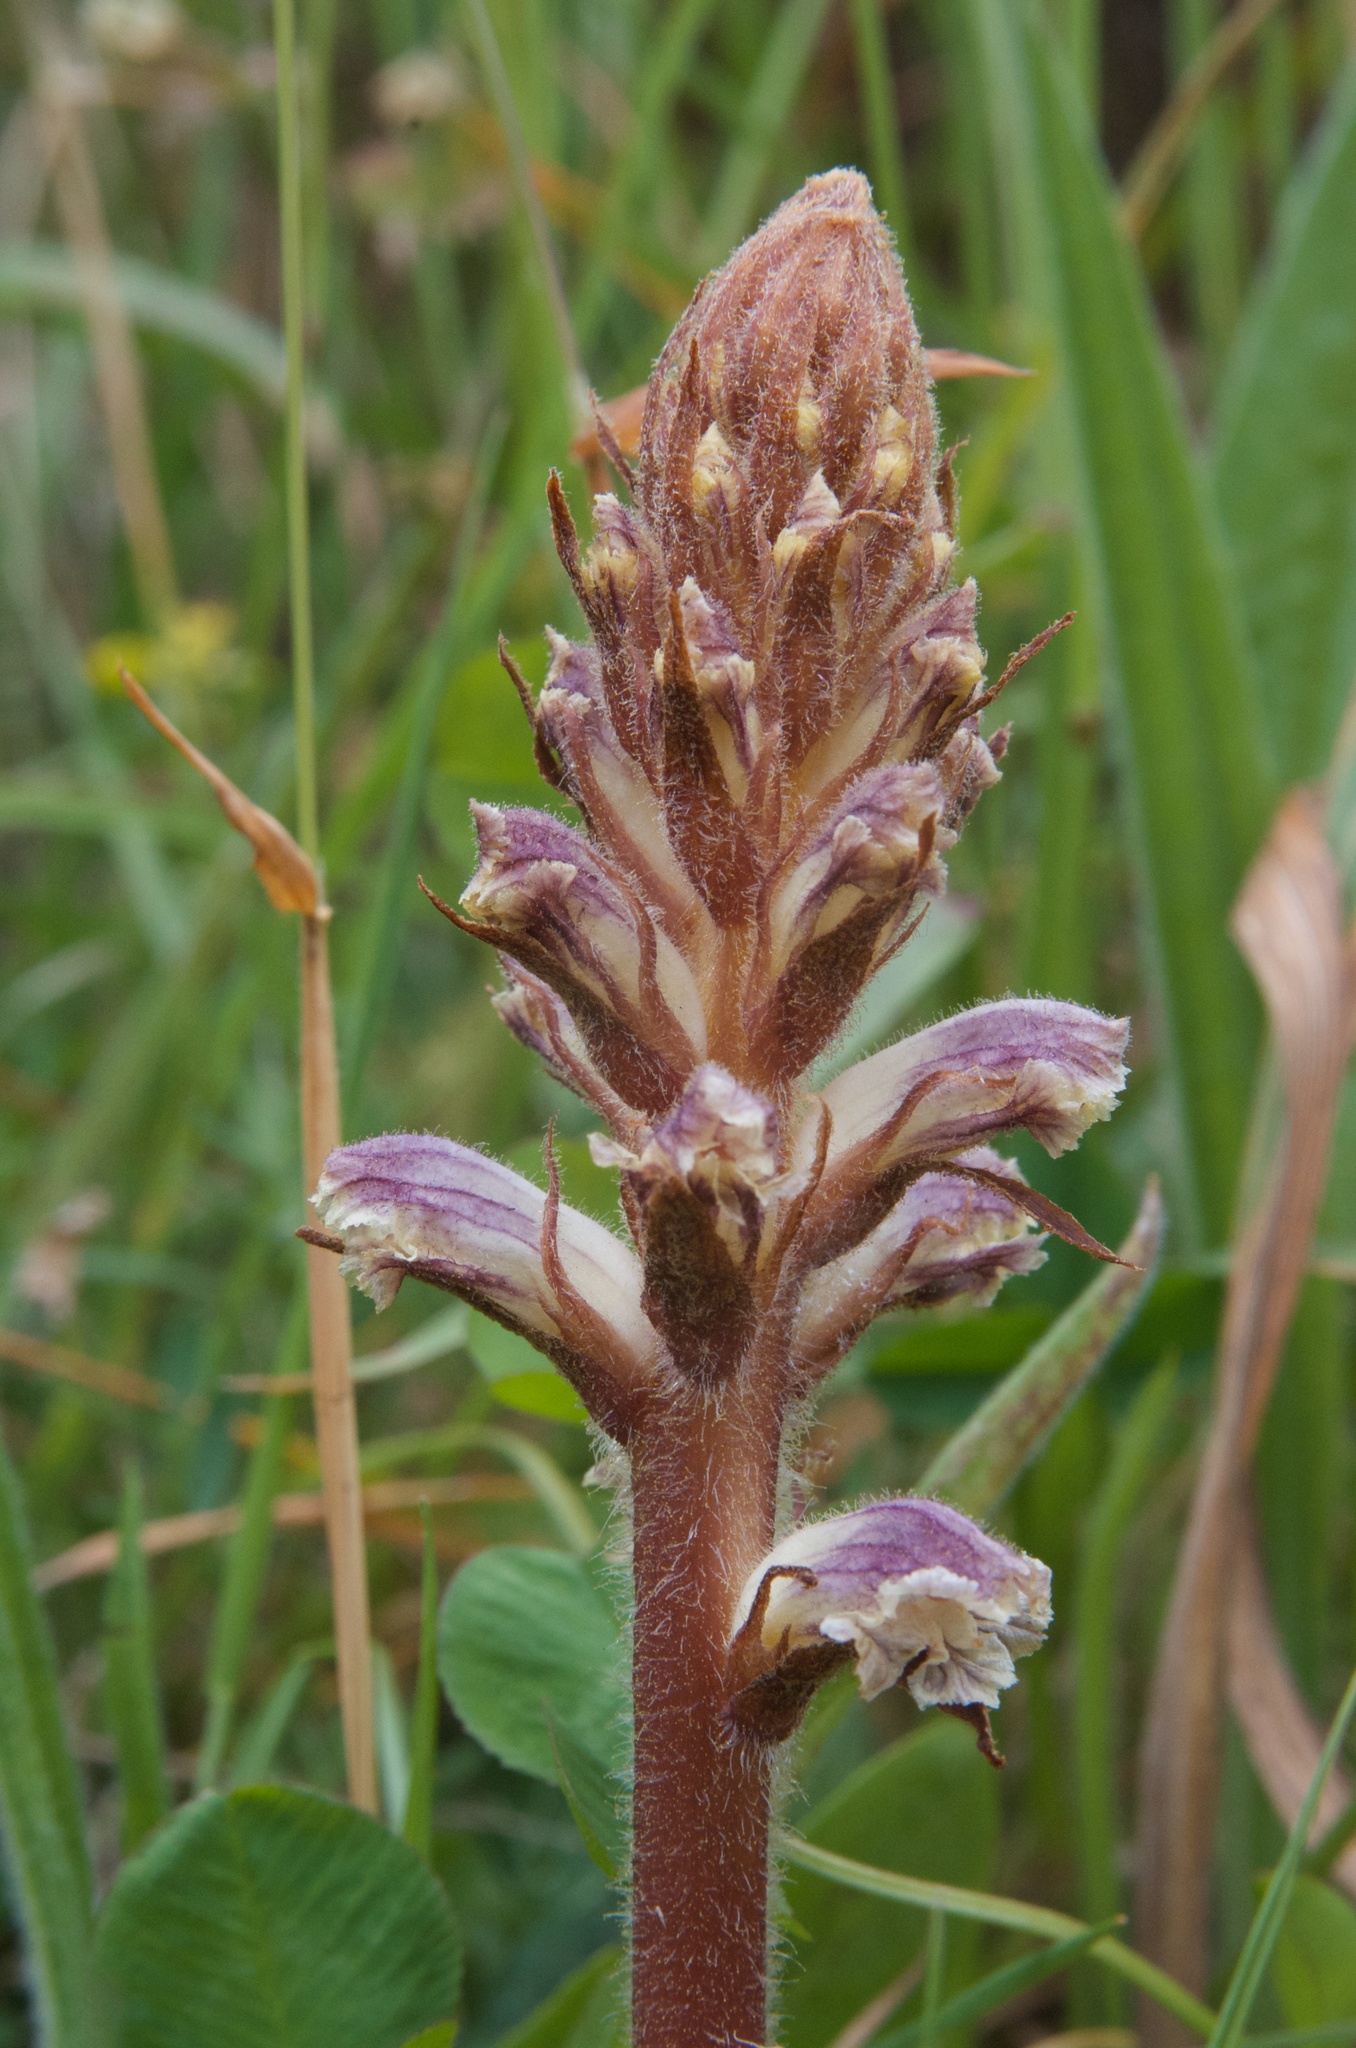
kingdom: Plantae
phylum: Tracheophyta
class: Magnoliopsida
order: Lamiales
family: Orobanchaceae
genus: Orobanche
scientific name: Orobanche minor
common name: Common broomrape
